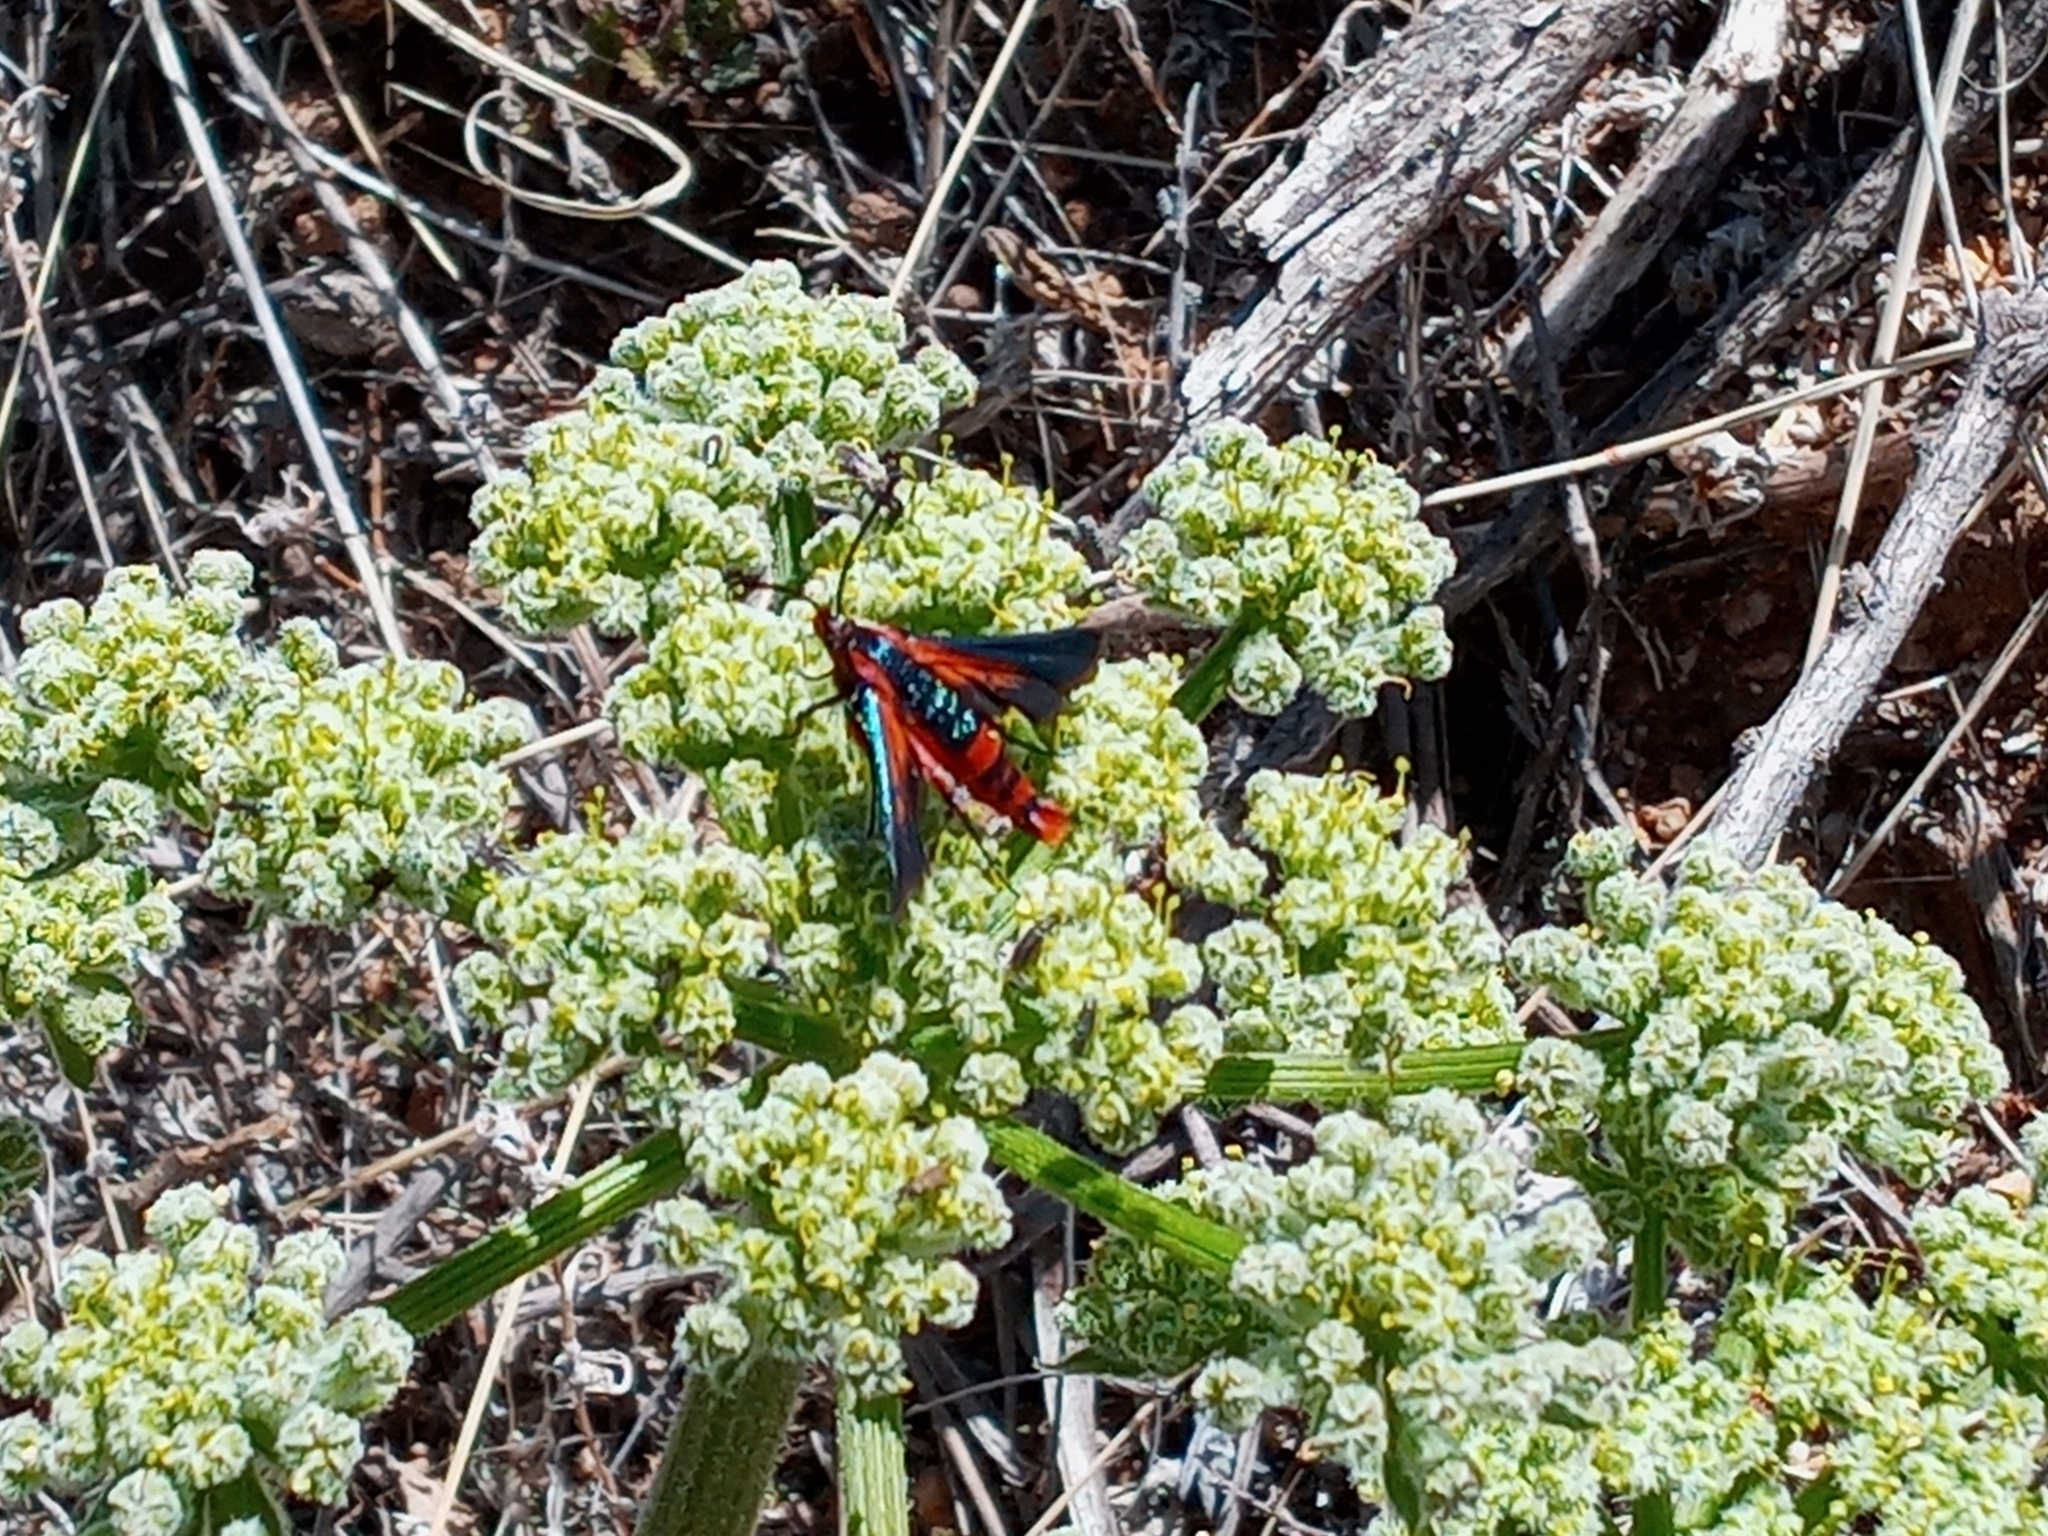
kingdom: Animalia
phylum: Arthropoda
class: Insecta
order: Lepidoptera
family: Sesiidae
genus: Synanthedon
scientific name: Synanthedon polygoni
